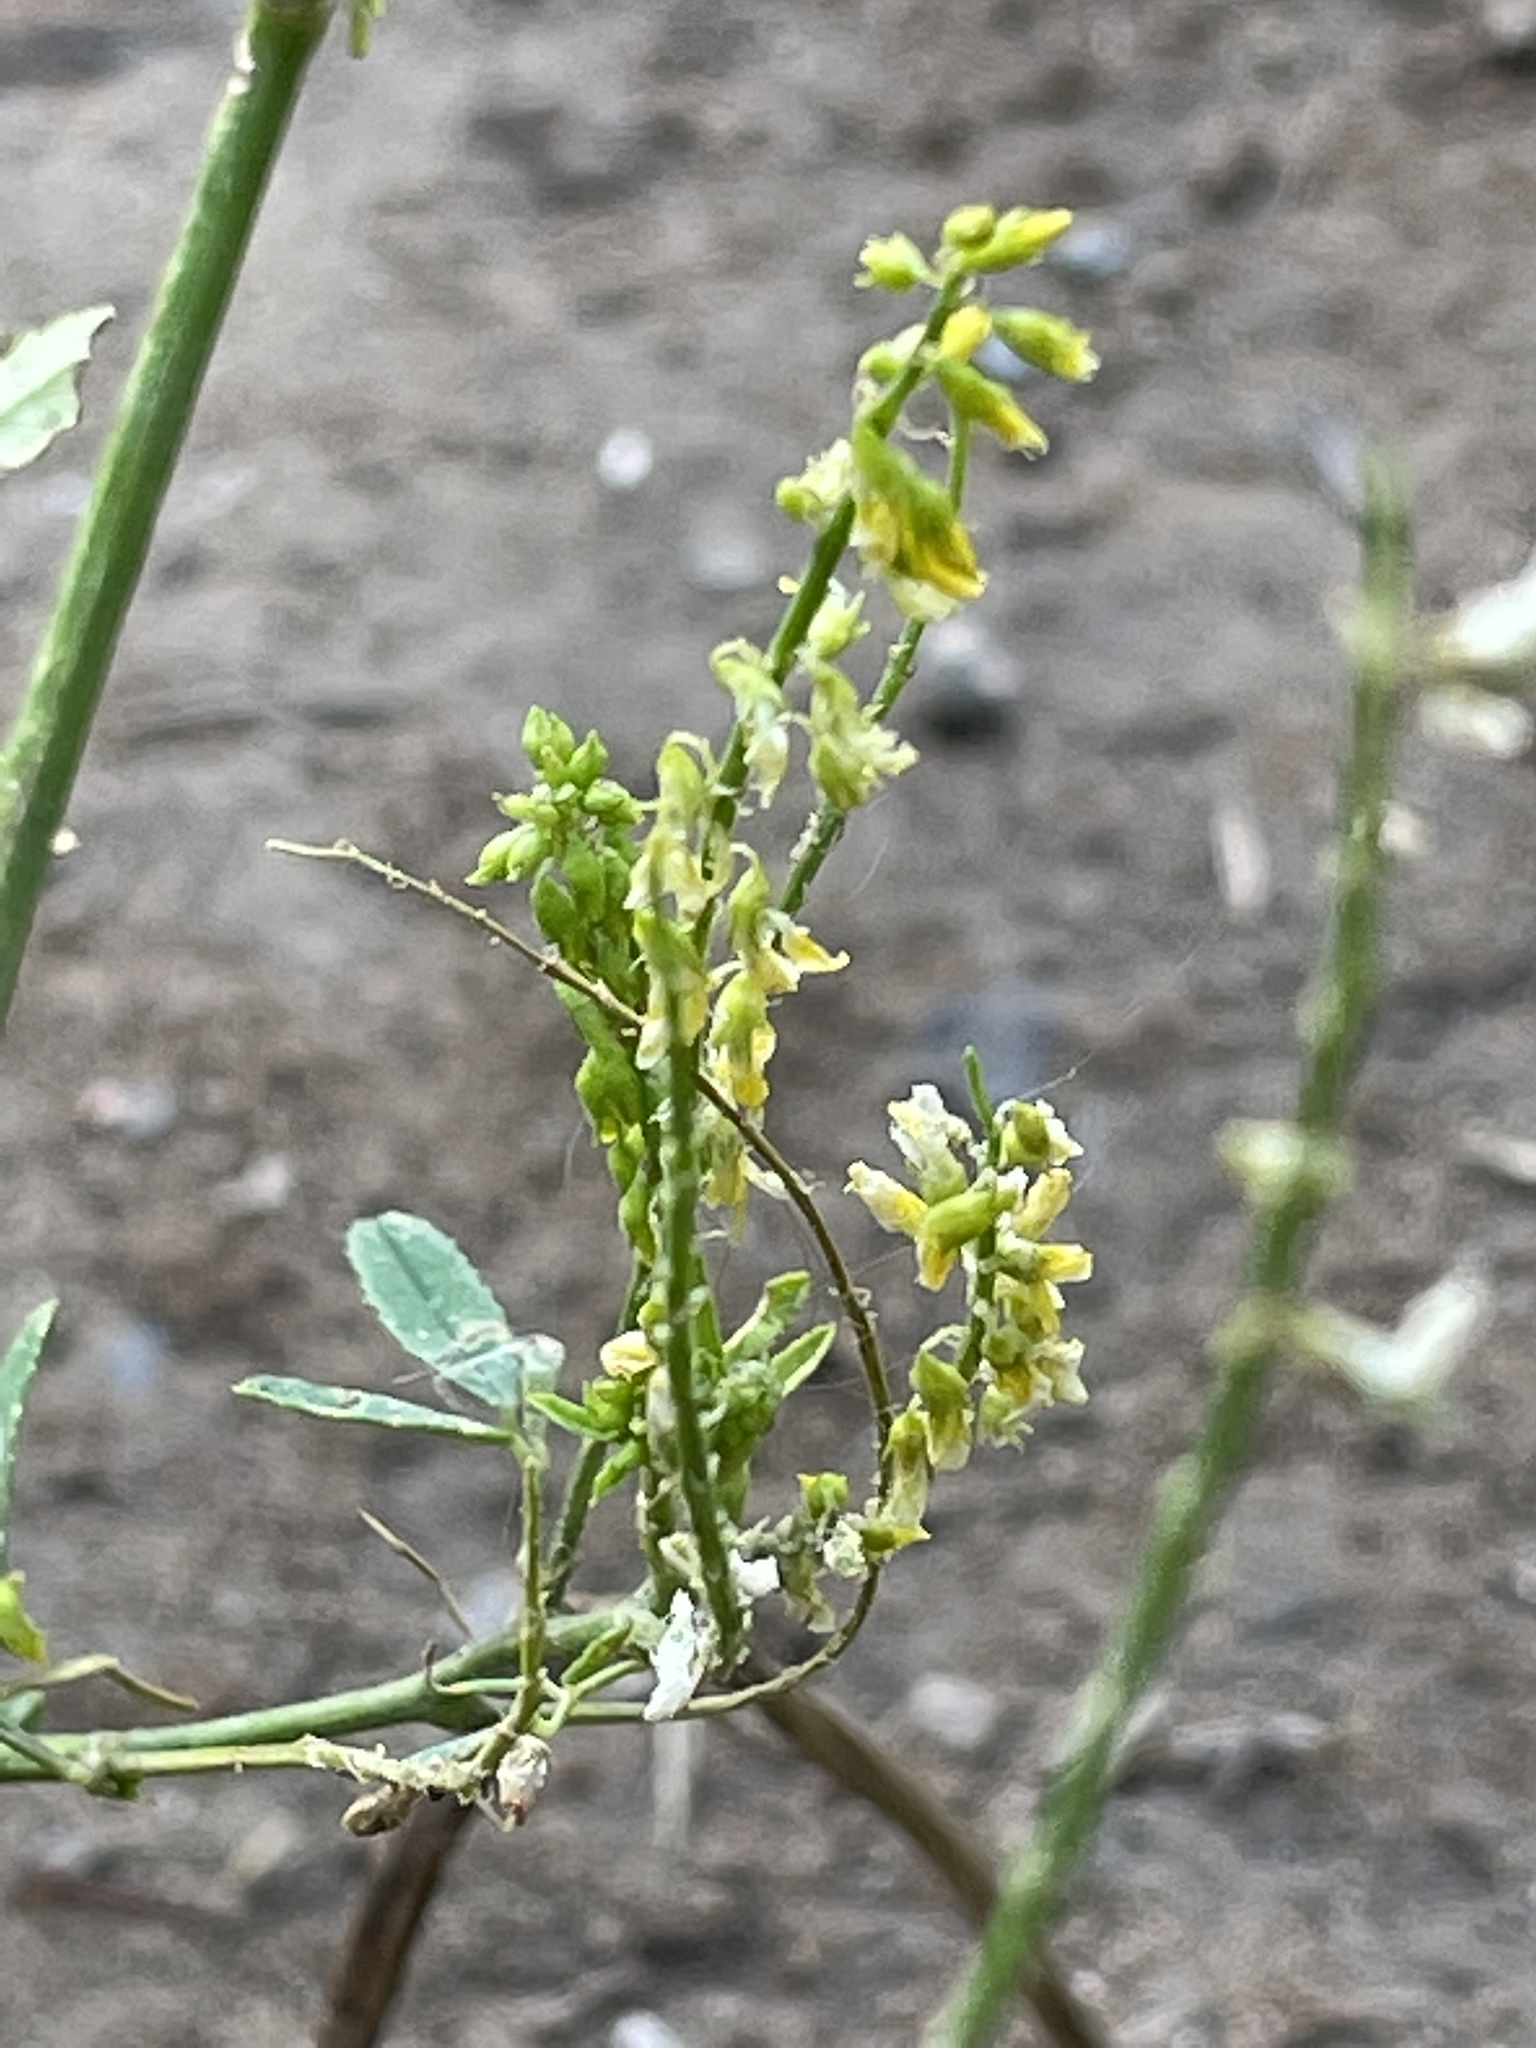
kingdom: Plantae
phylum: Tracheophyta
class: Magnoliopsida
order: Fabales
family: Fabaceae
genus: Melilotus
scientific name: Melilotus officinalis
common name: Sweetclover
